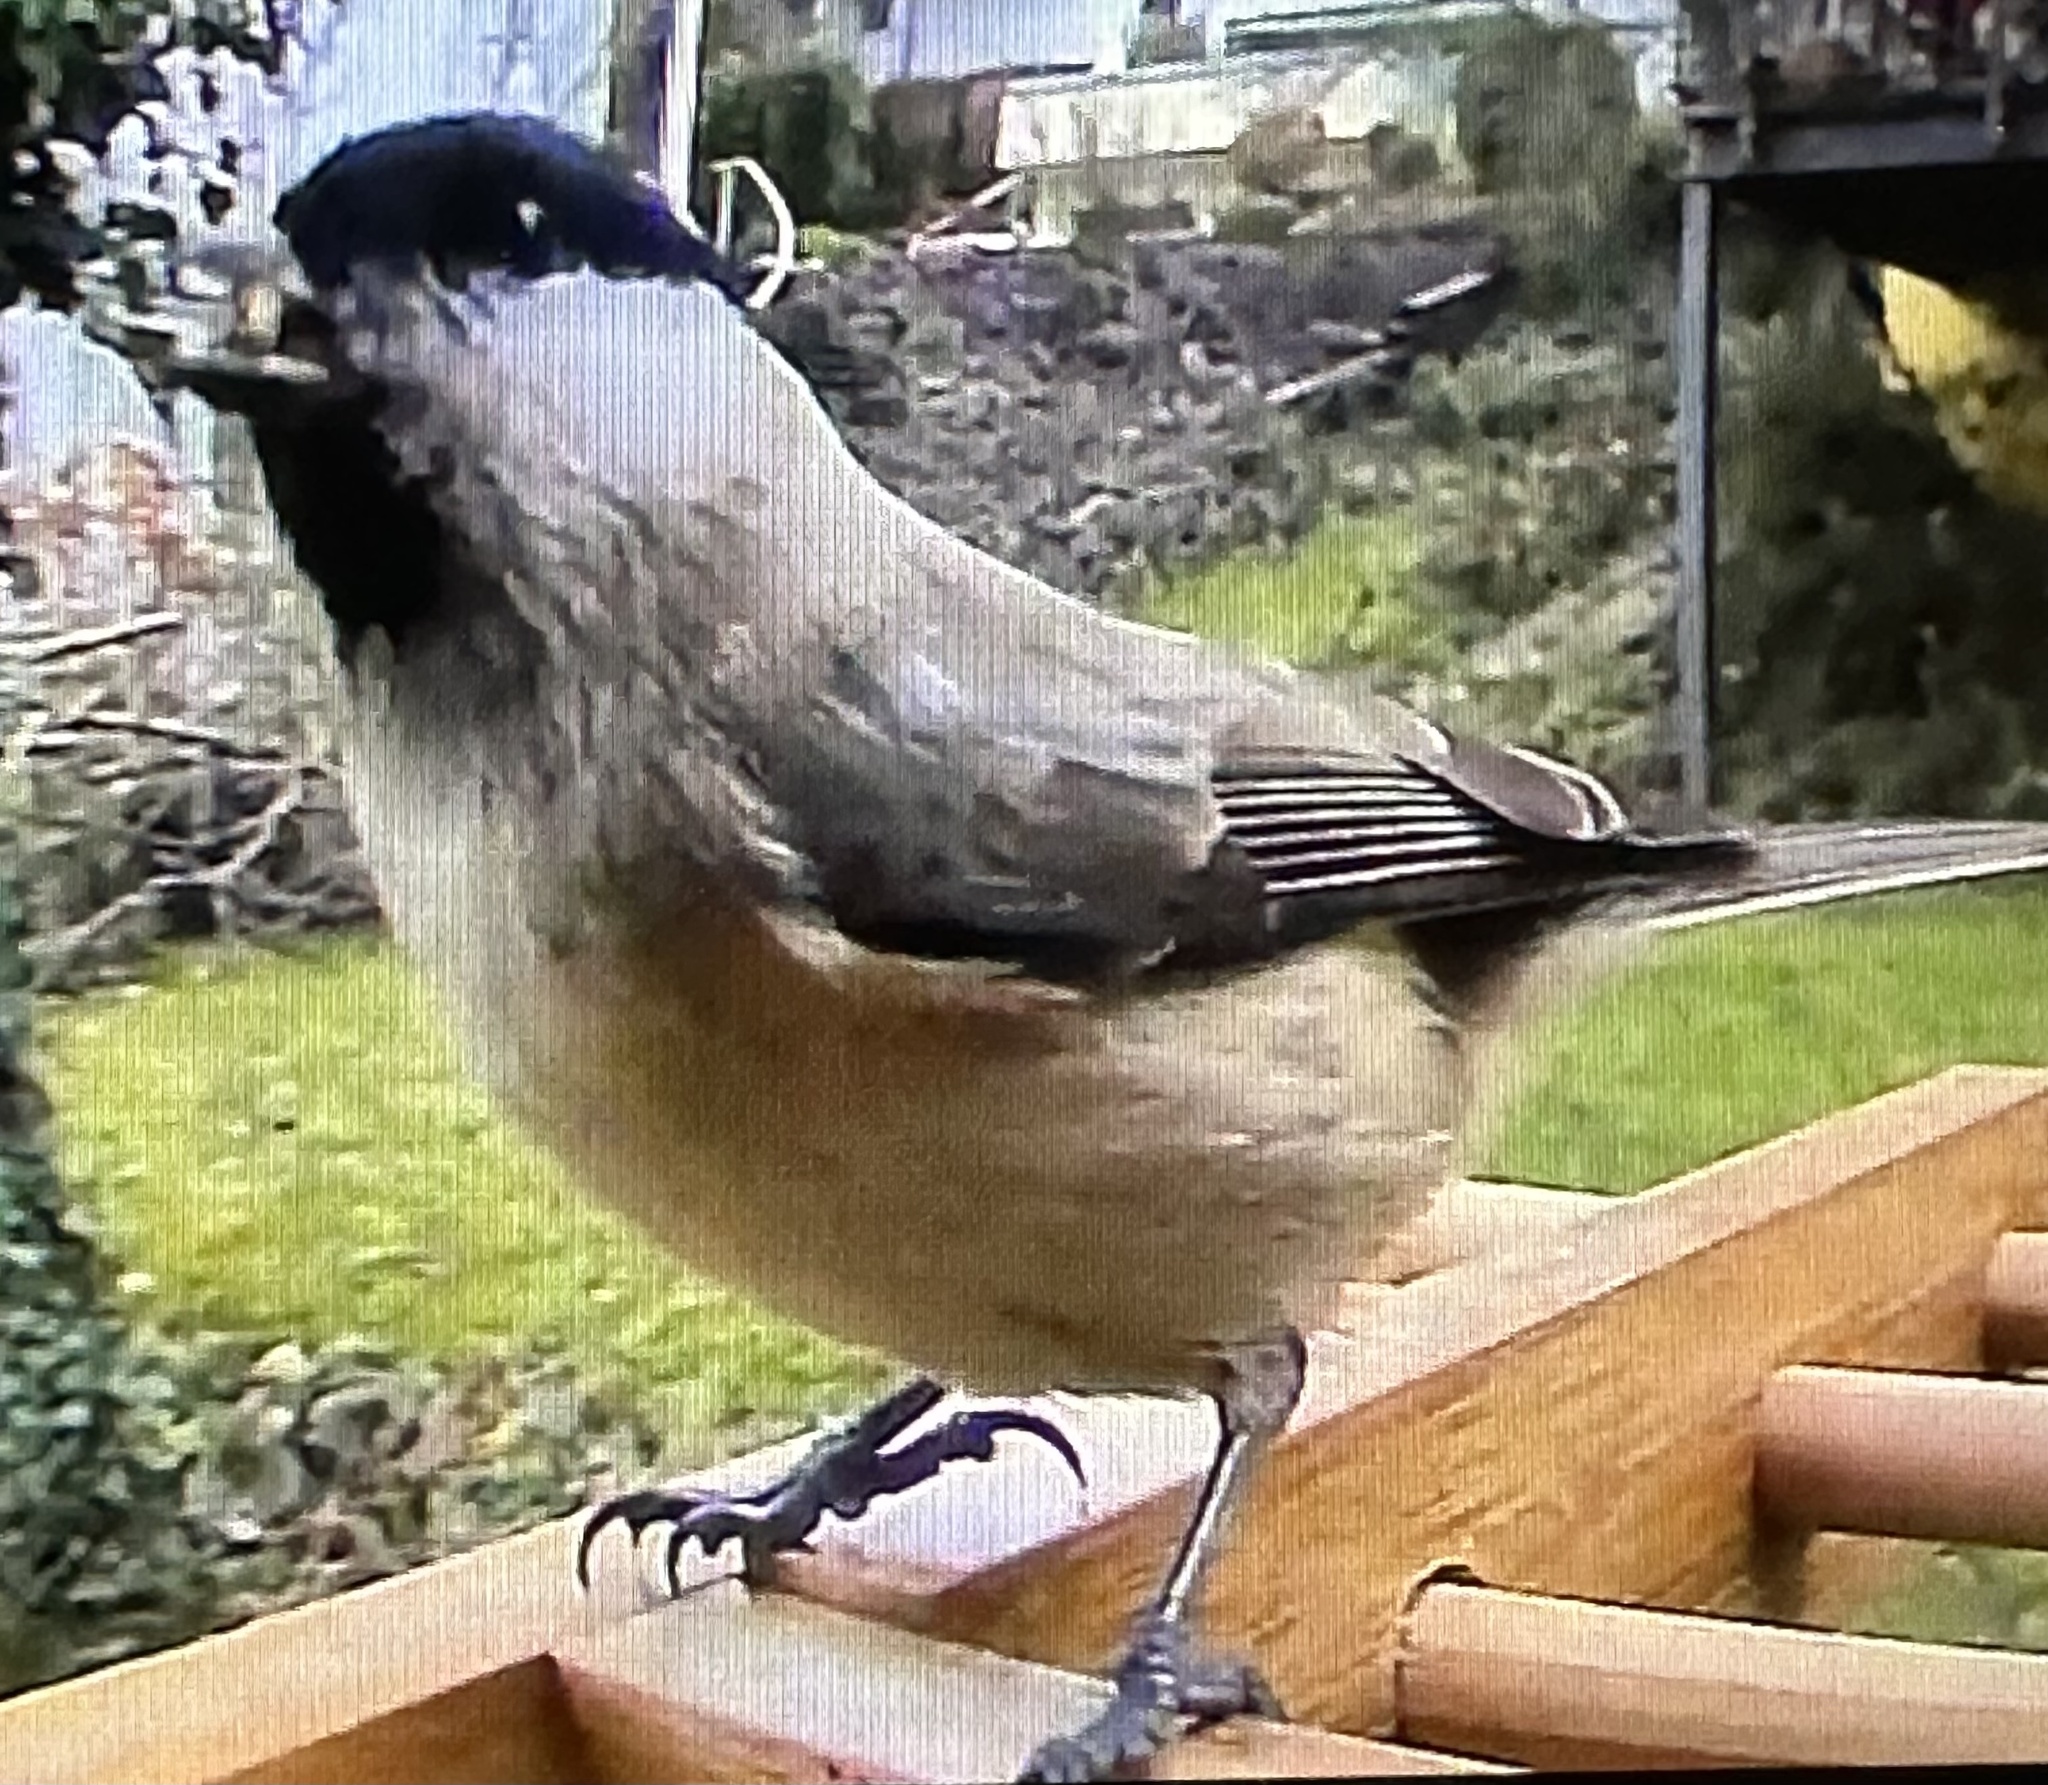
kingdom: Animalia
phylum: Chordata
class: Aves
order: Passeriformes
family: Paridae
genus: Poecile
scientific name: Poecile palustris
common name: Marsh tit
